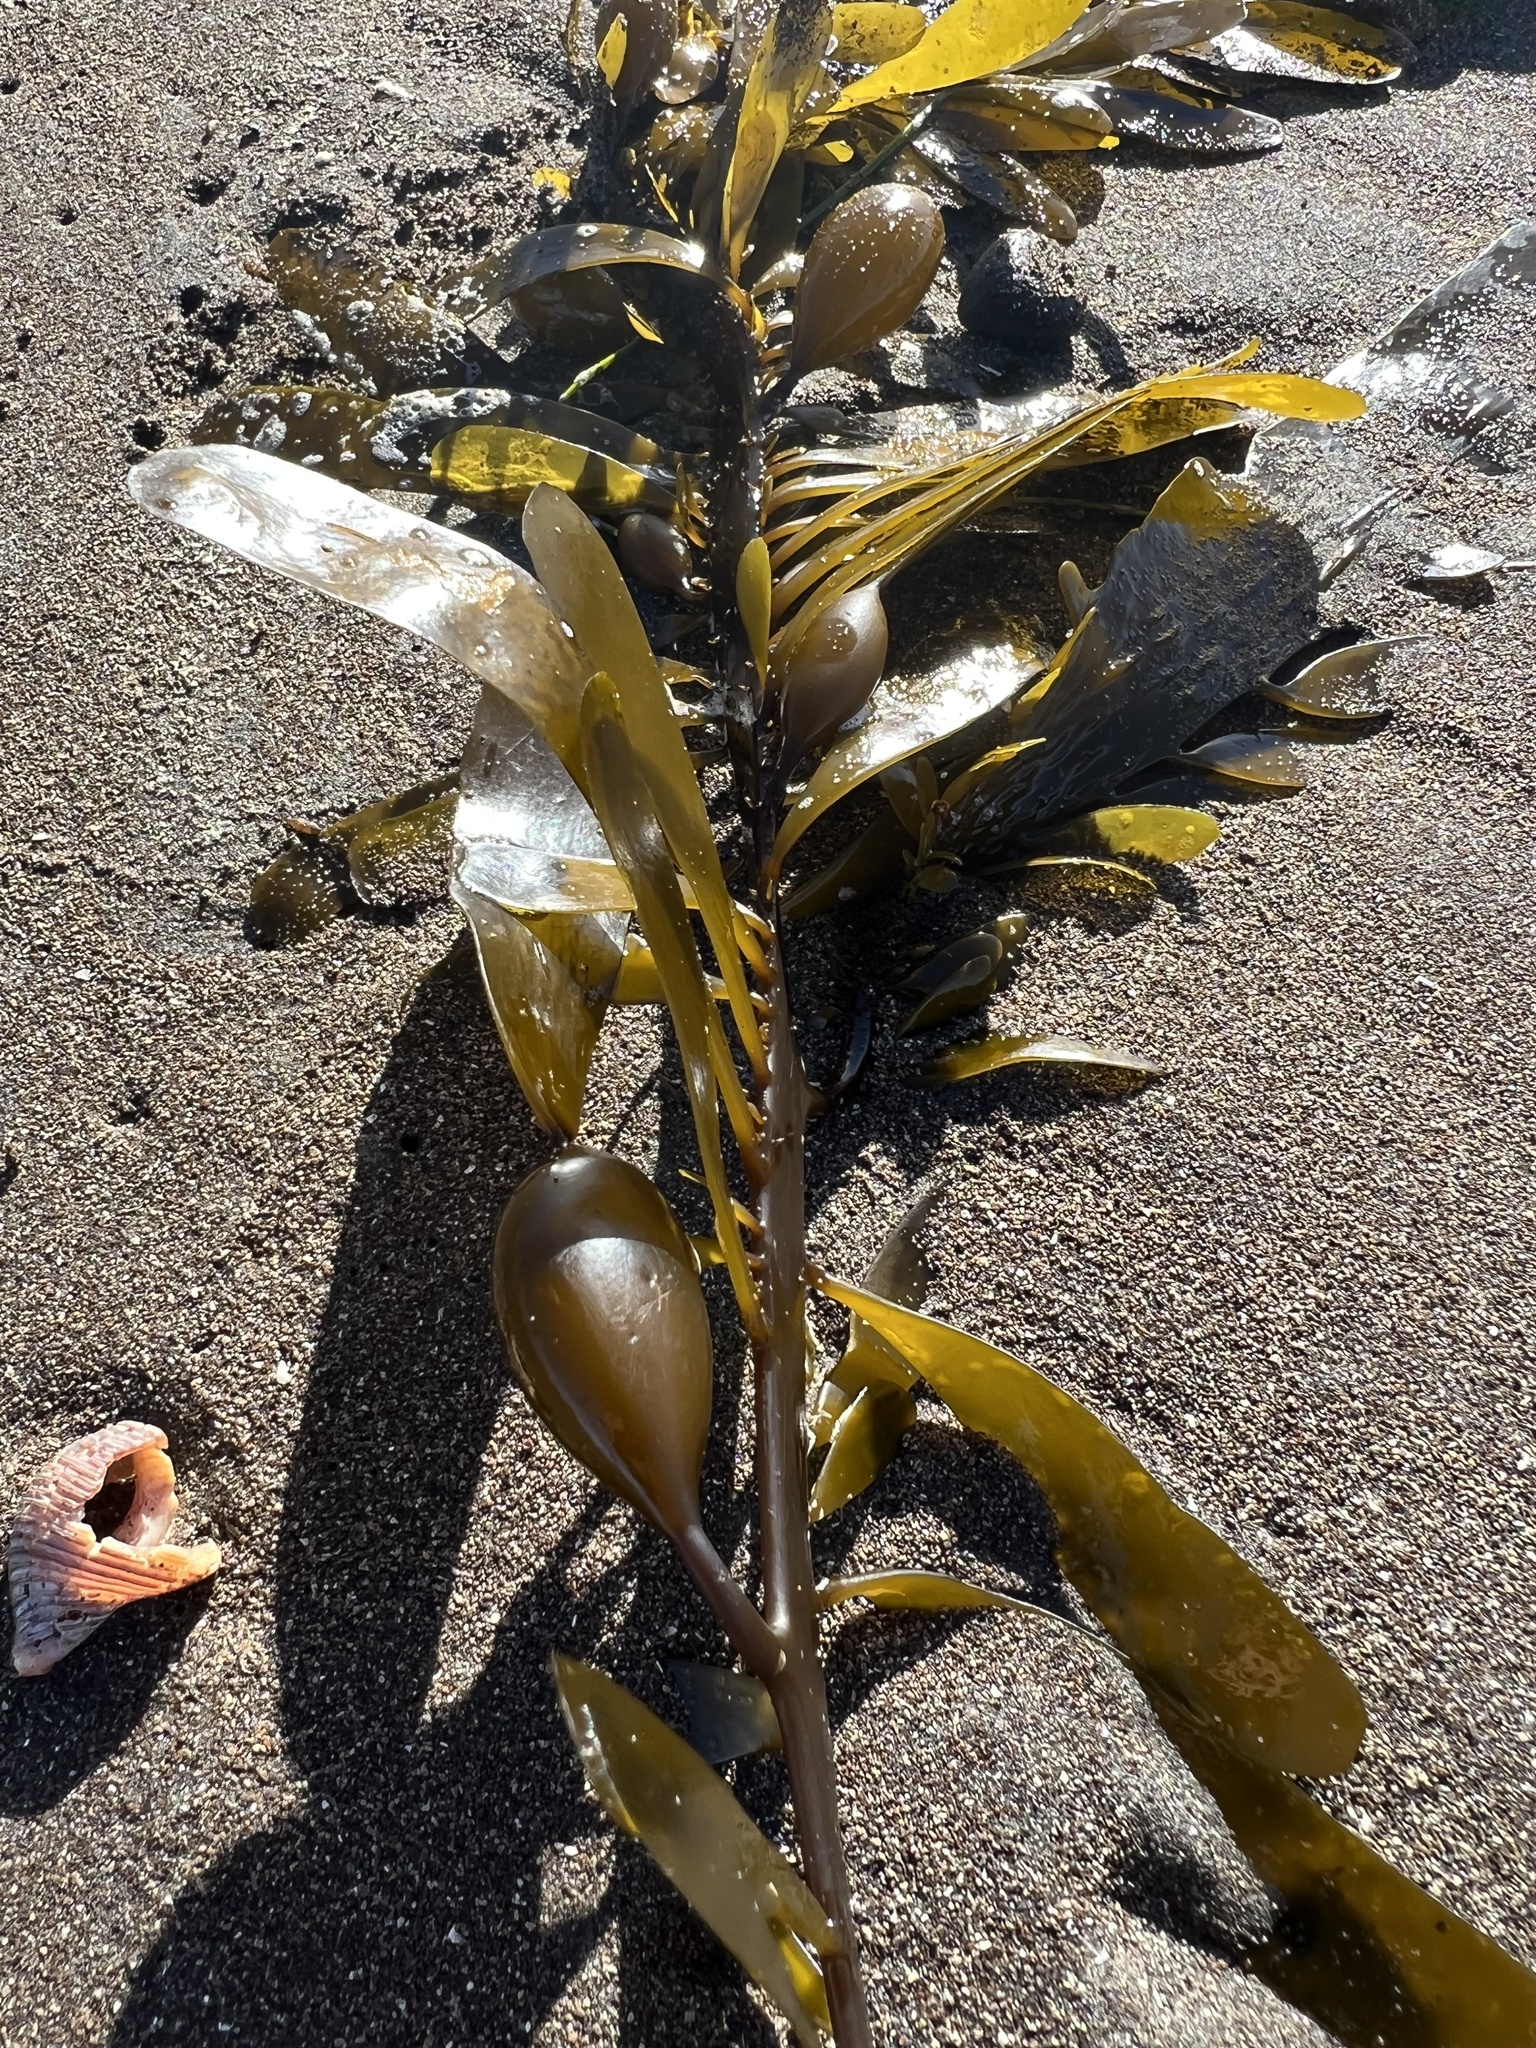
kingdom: Chromista
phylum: Ochrophyta
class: Phaeophyceae
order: Laminariales
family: Lessoniaceae
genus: Egregia
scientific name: Egregia menziesii
